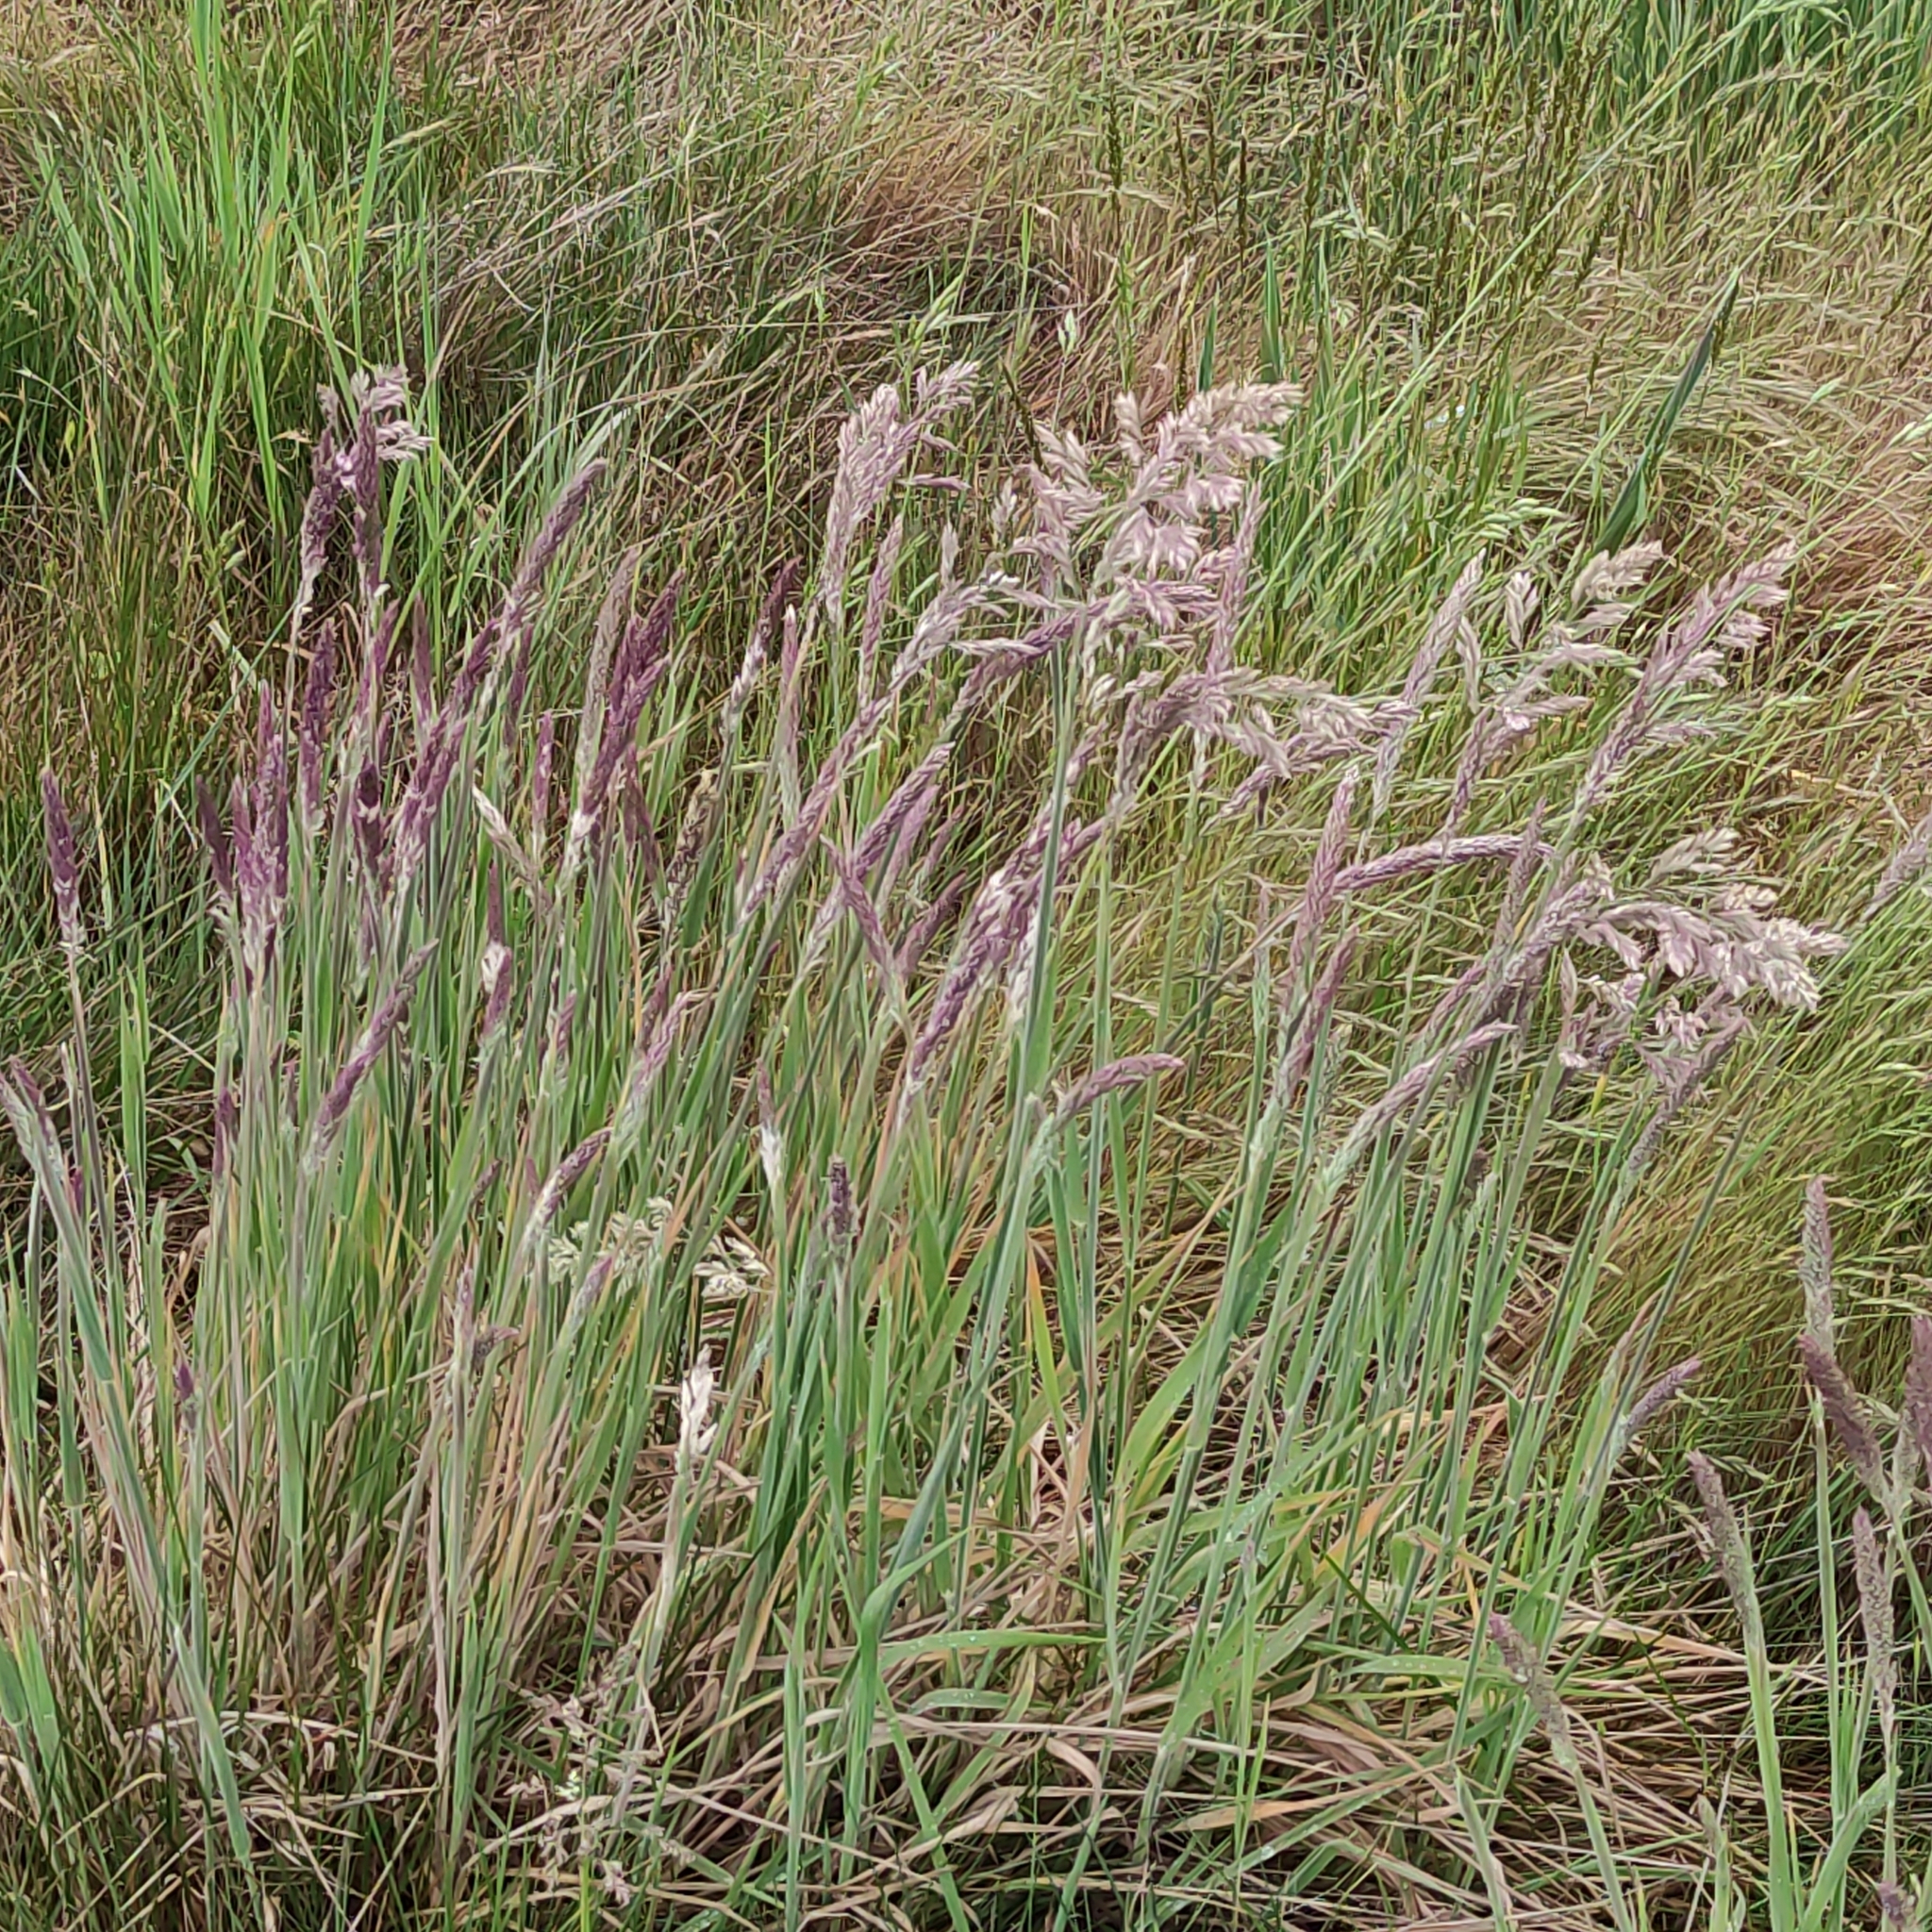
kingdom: Plantae
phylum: Tracheophyta
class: Liliopsida
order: Poales
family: Poaceae
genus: Holcus
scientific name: Holcus lanatus
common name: Yorkshire-fog
